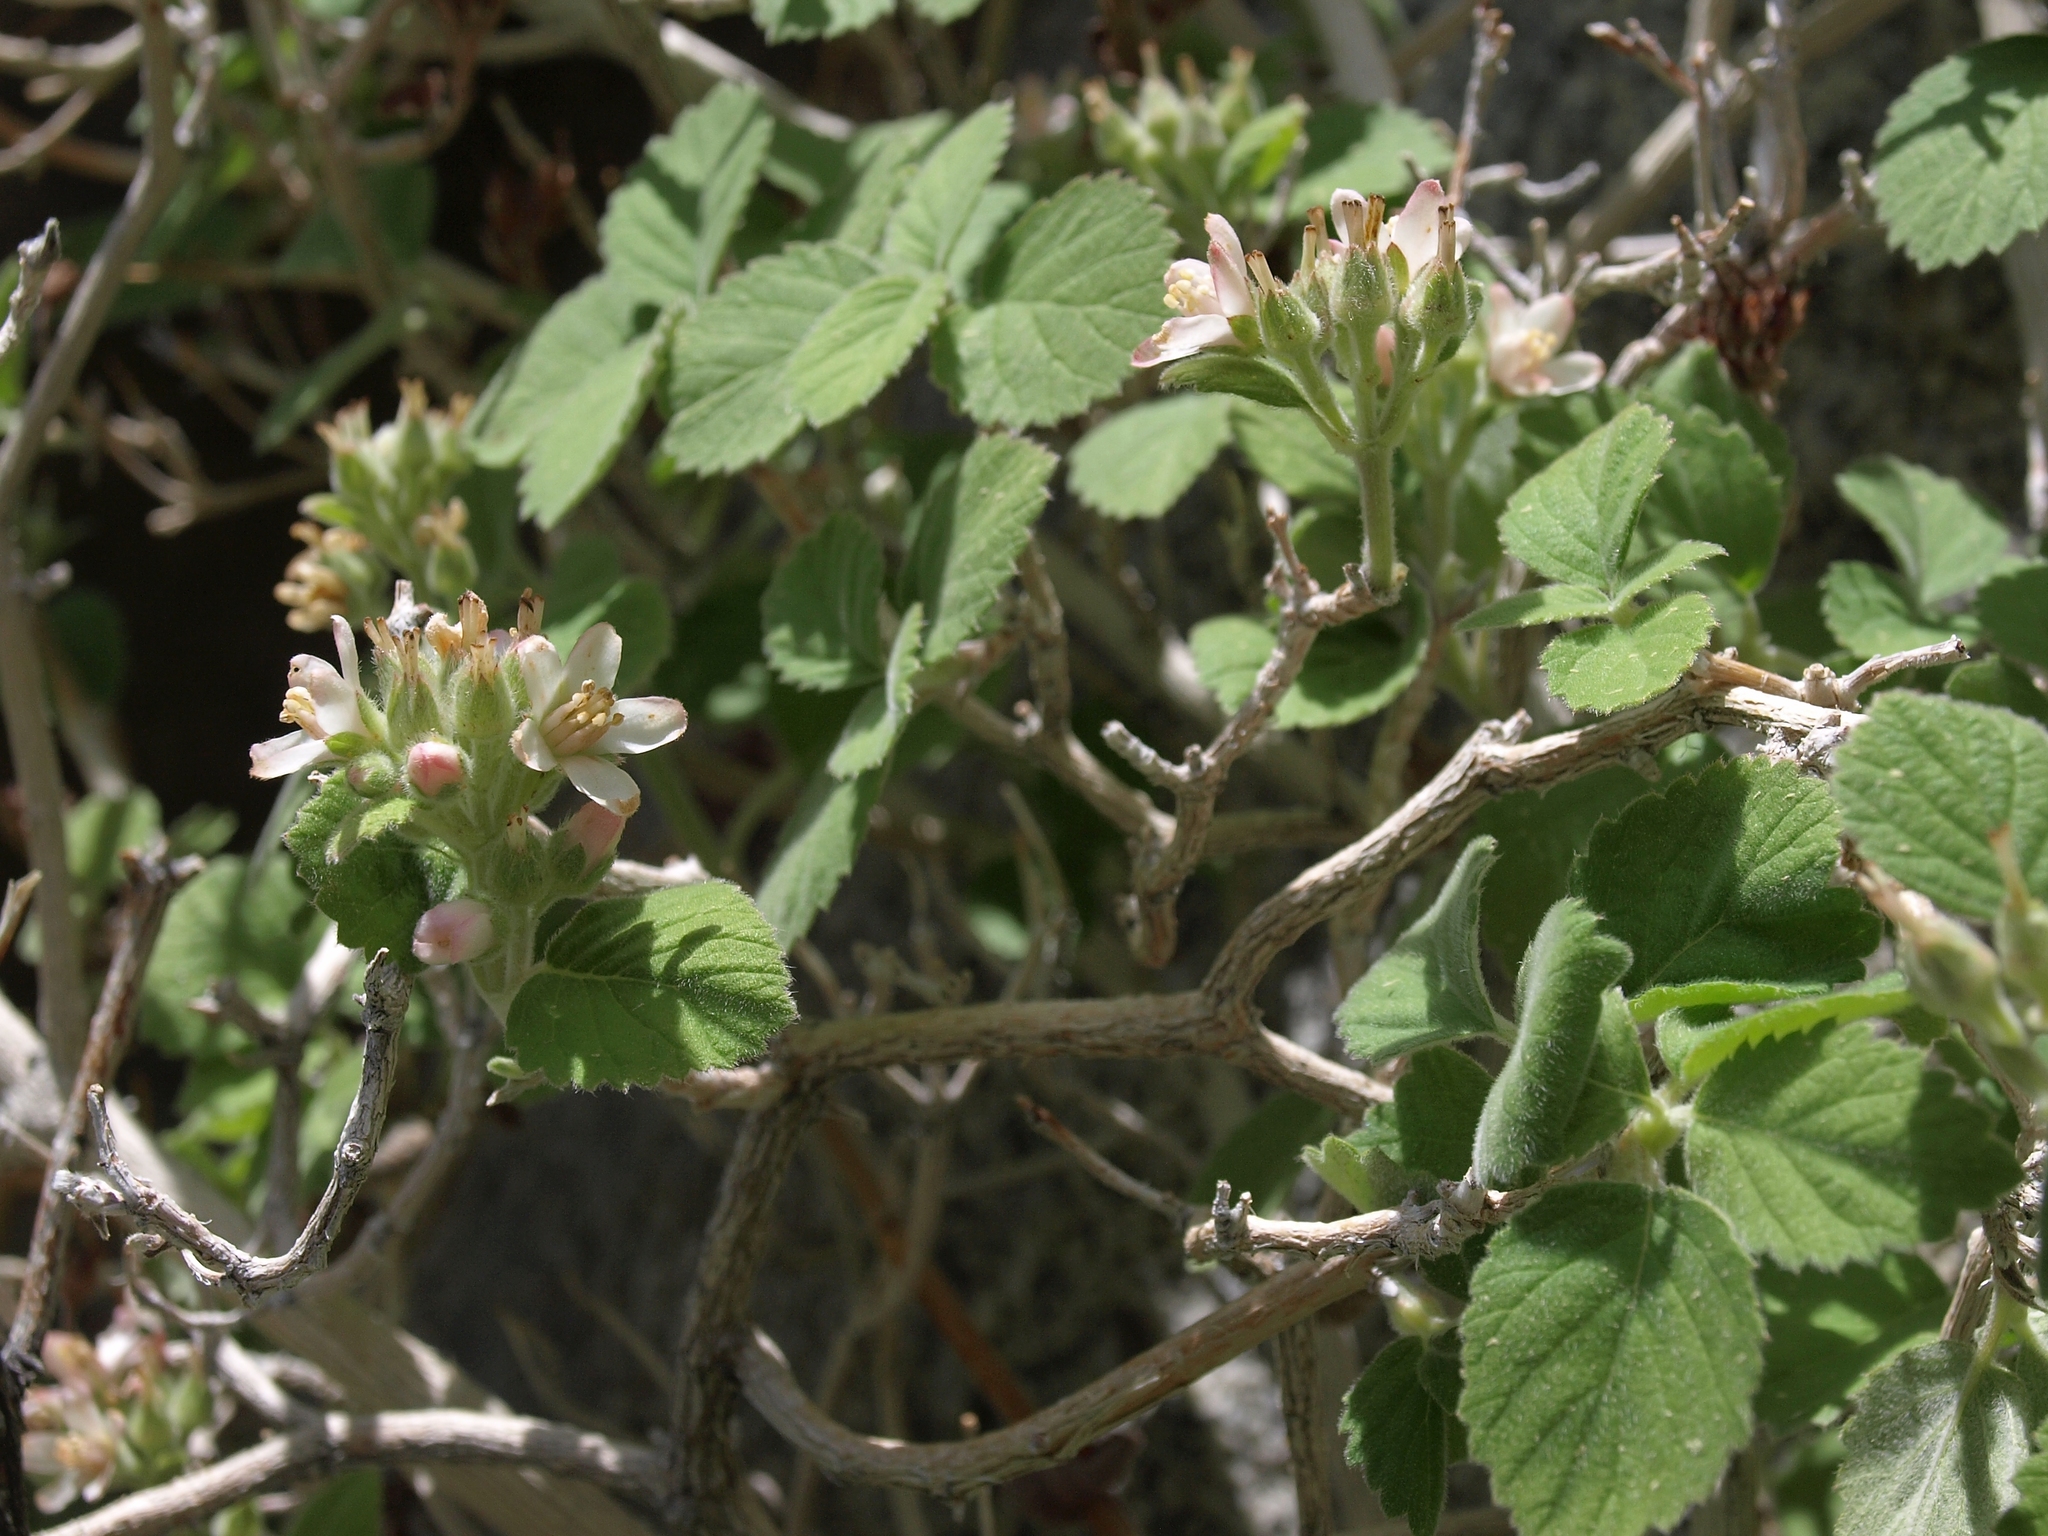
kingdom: Plantae
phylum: Tracheophyta
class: Magnoliopsida
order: Cornales
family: Hydrangeaceae
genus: Jamesia
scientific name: Jamesia americana
